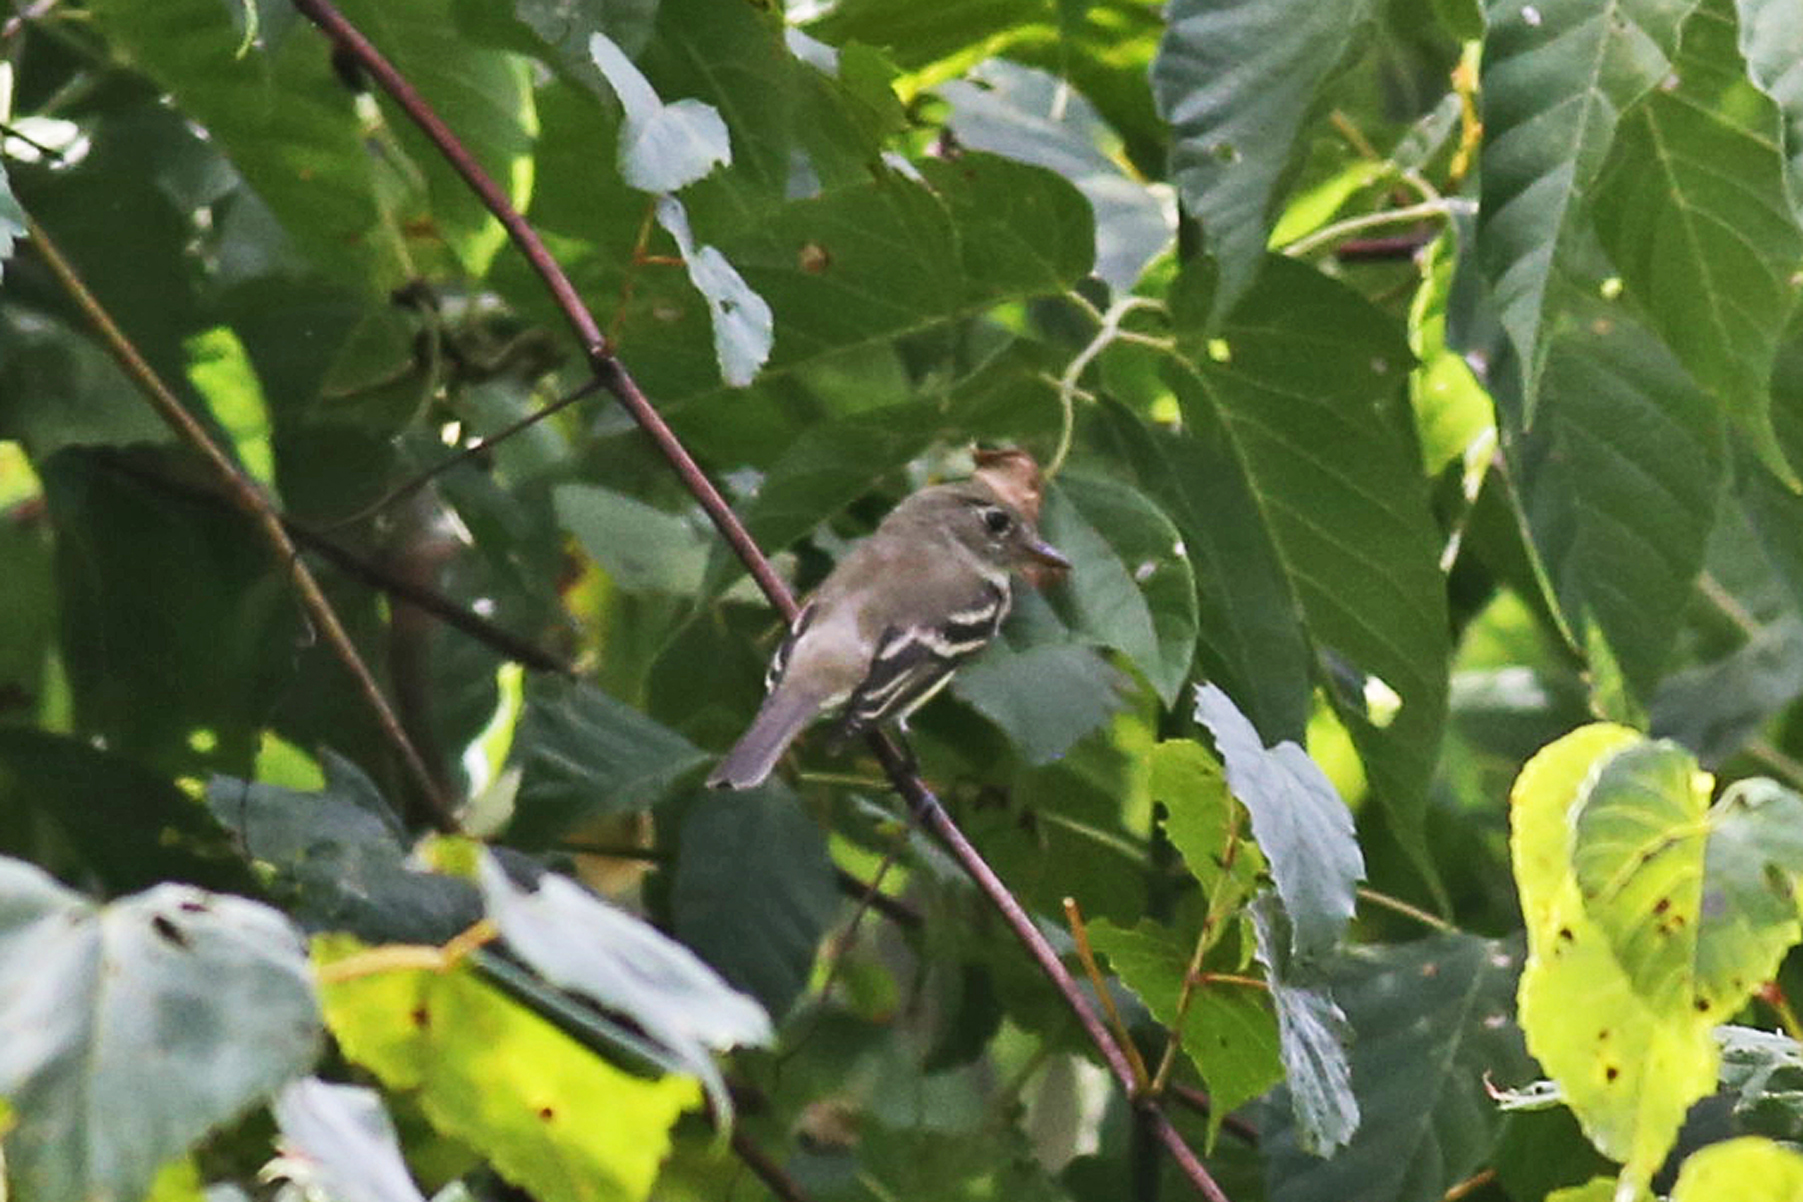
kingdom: Animalia
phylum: Chordata
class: Aves
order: Passeriformes
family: Tyrannidae
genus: Empidonax
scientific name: Empidonax minimus
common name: Least flycatcher
